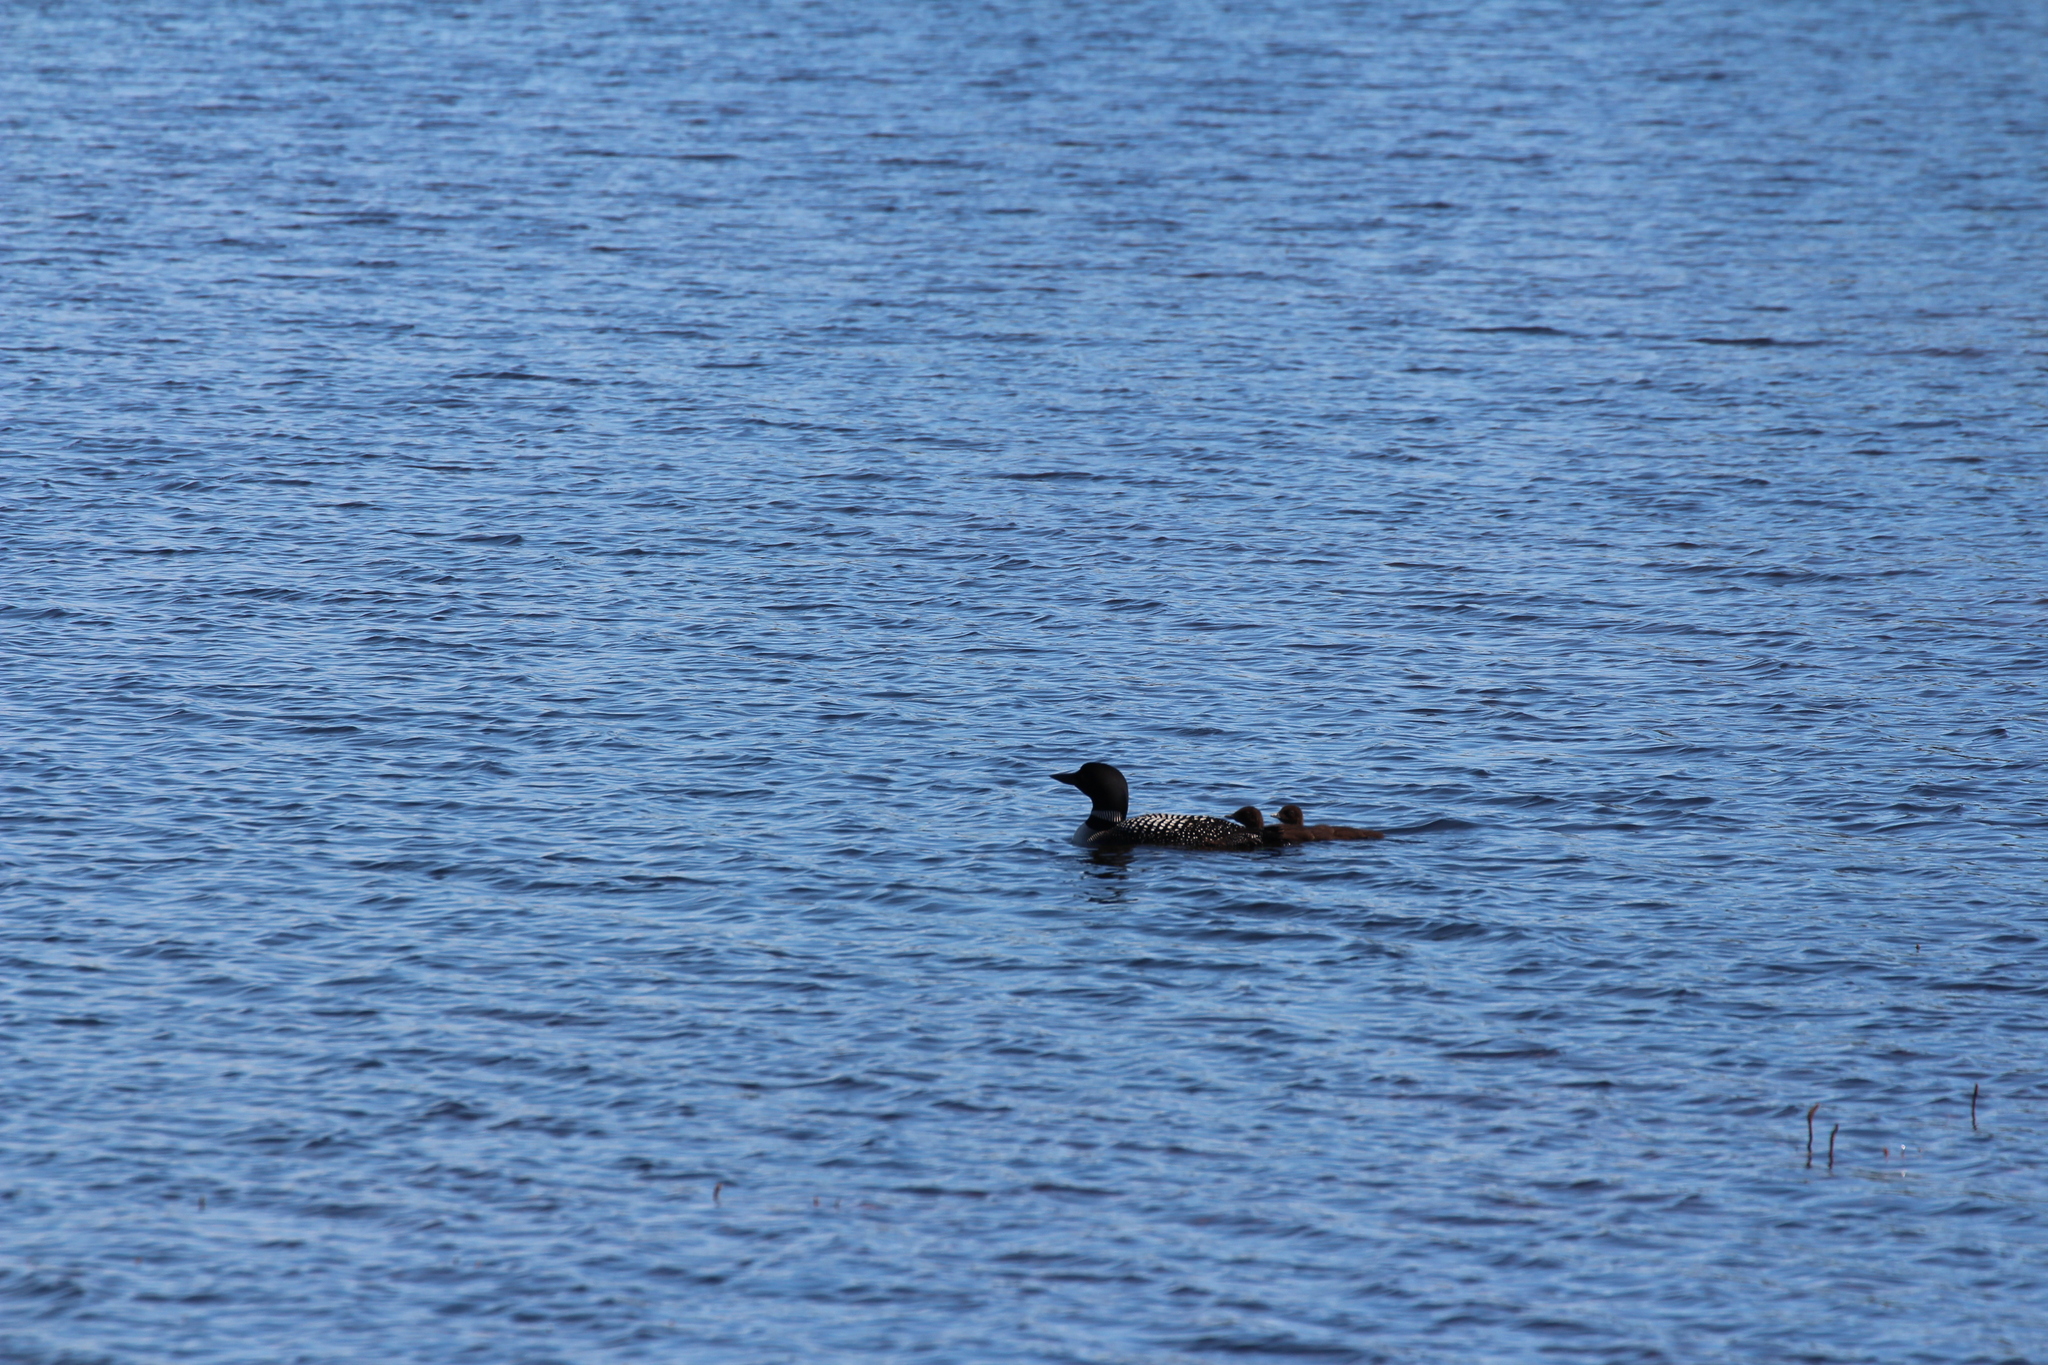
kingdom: Animalia
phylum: Chordata
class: Aves
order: Gaviiformes
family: Gaviidae
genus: Gavia
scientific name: Gavia immer
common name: Common loon
